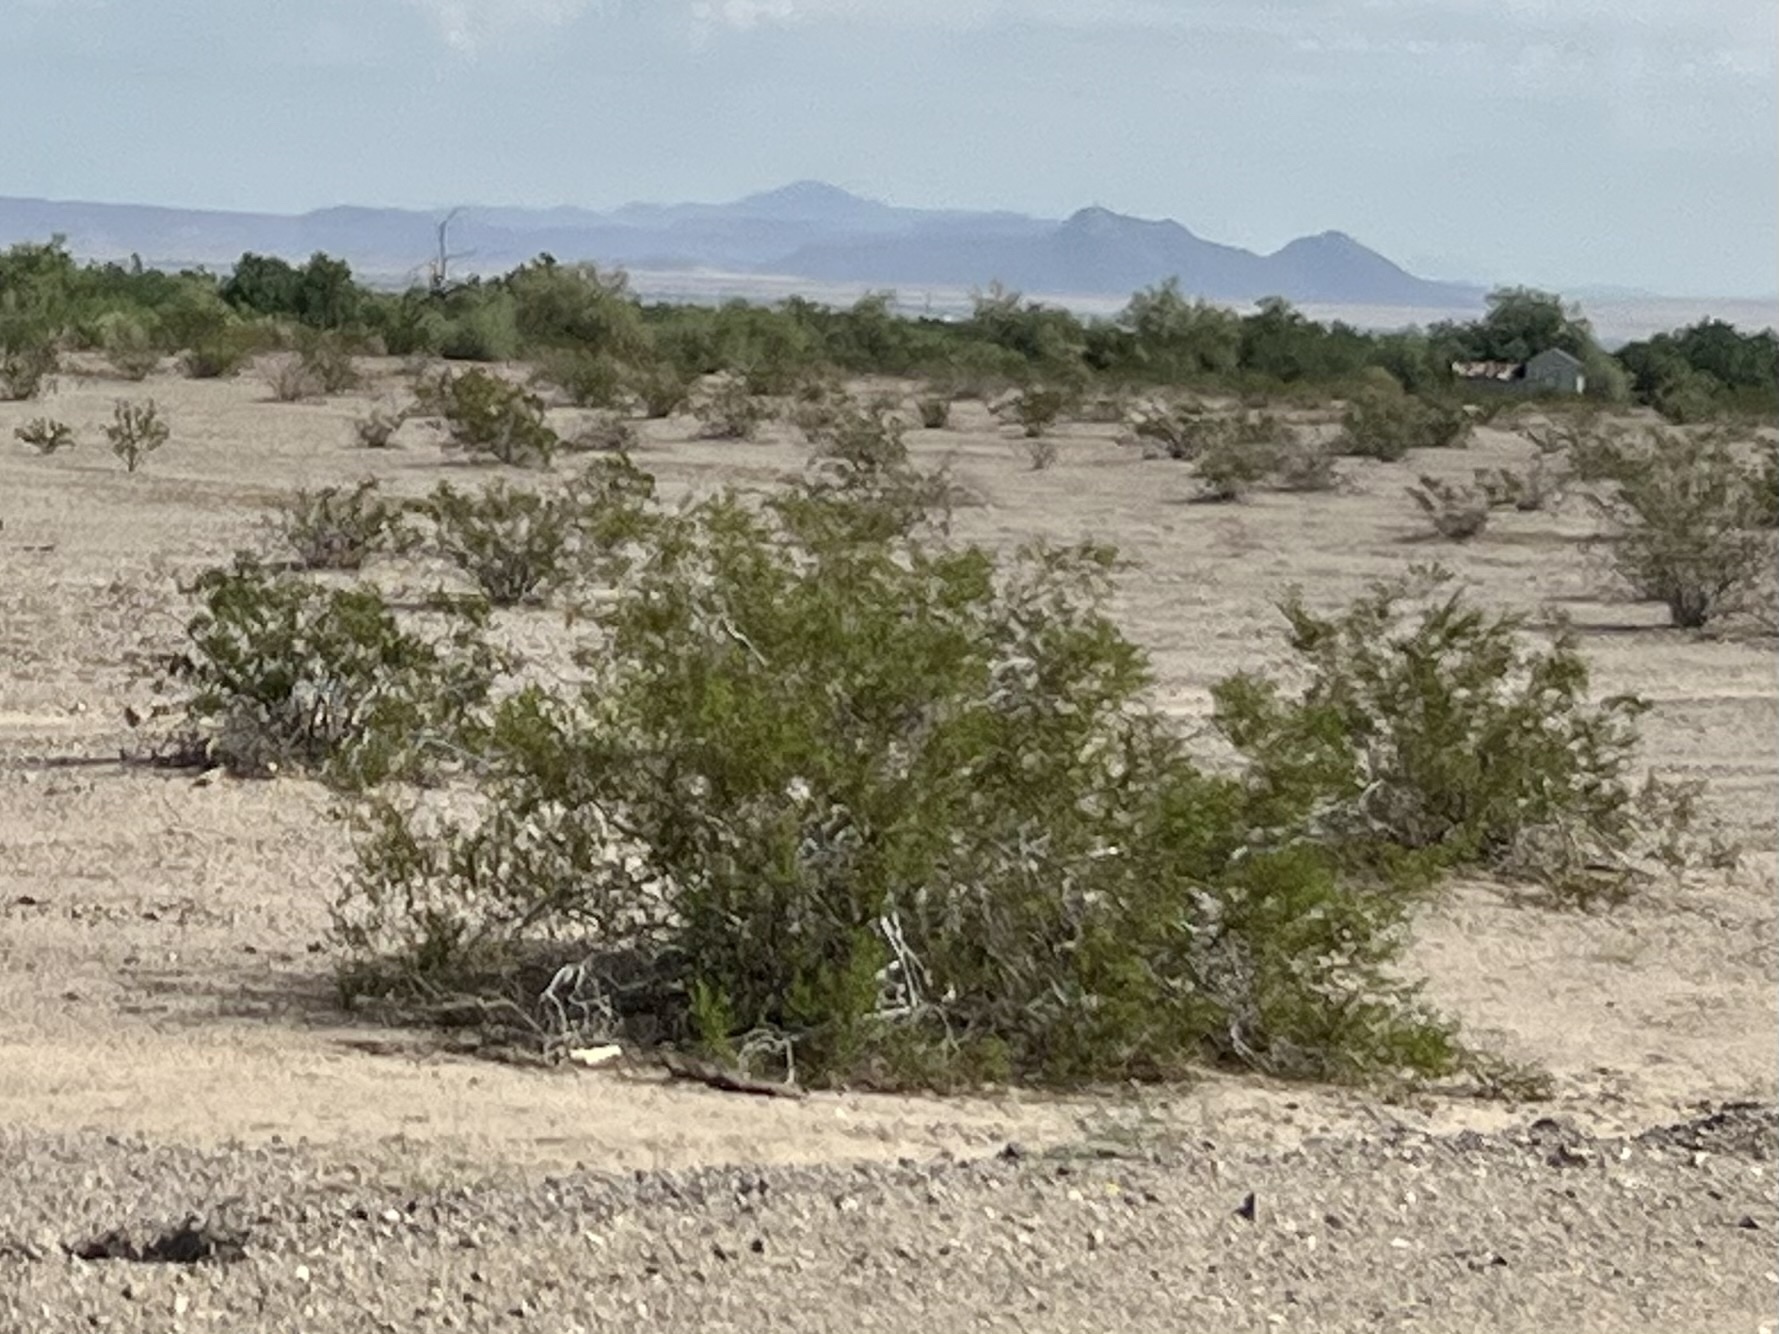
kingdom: Plantae
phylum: Tracheophyta
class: Magnoliopsida
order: Zygophyllales
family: Zygophyllaceae
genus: Larrea
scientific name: Larrea tridentata
